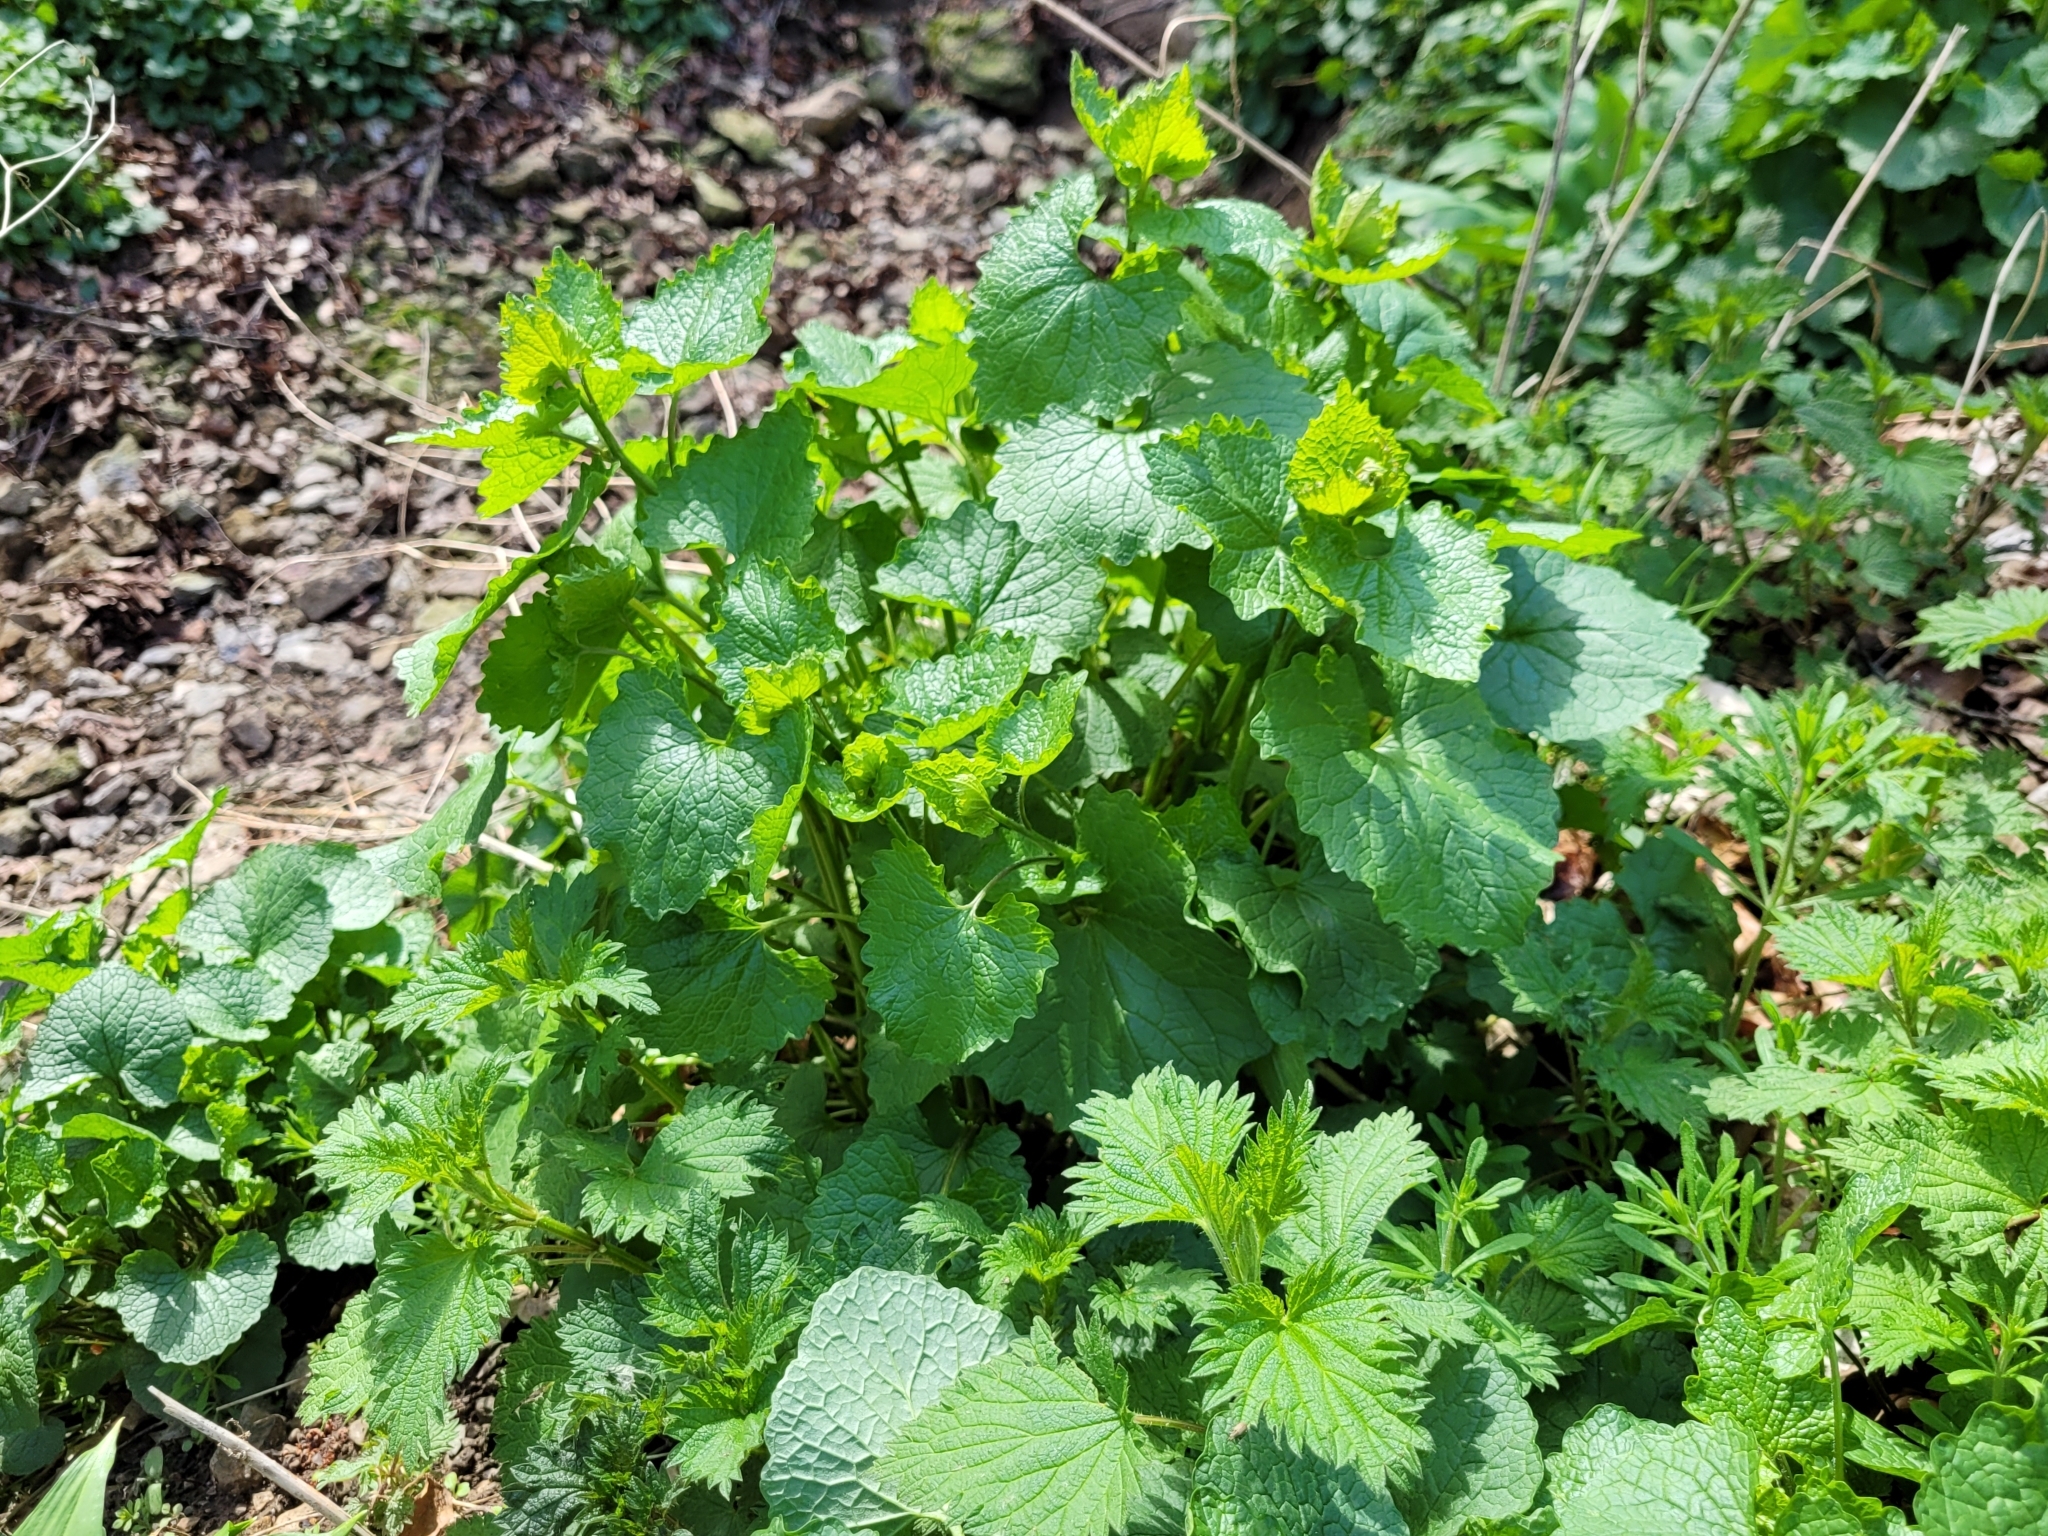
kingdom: Plantae
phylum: Tracheophyta
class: Magnoliopsida
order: Brassicales
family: Brassicaceae
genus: Alliaria
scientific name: Alliaria petiolata
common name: Garlic mustard
